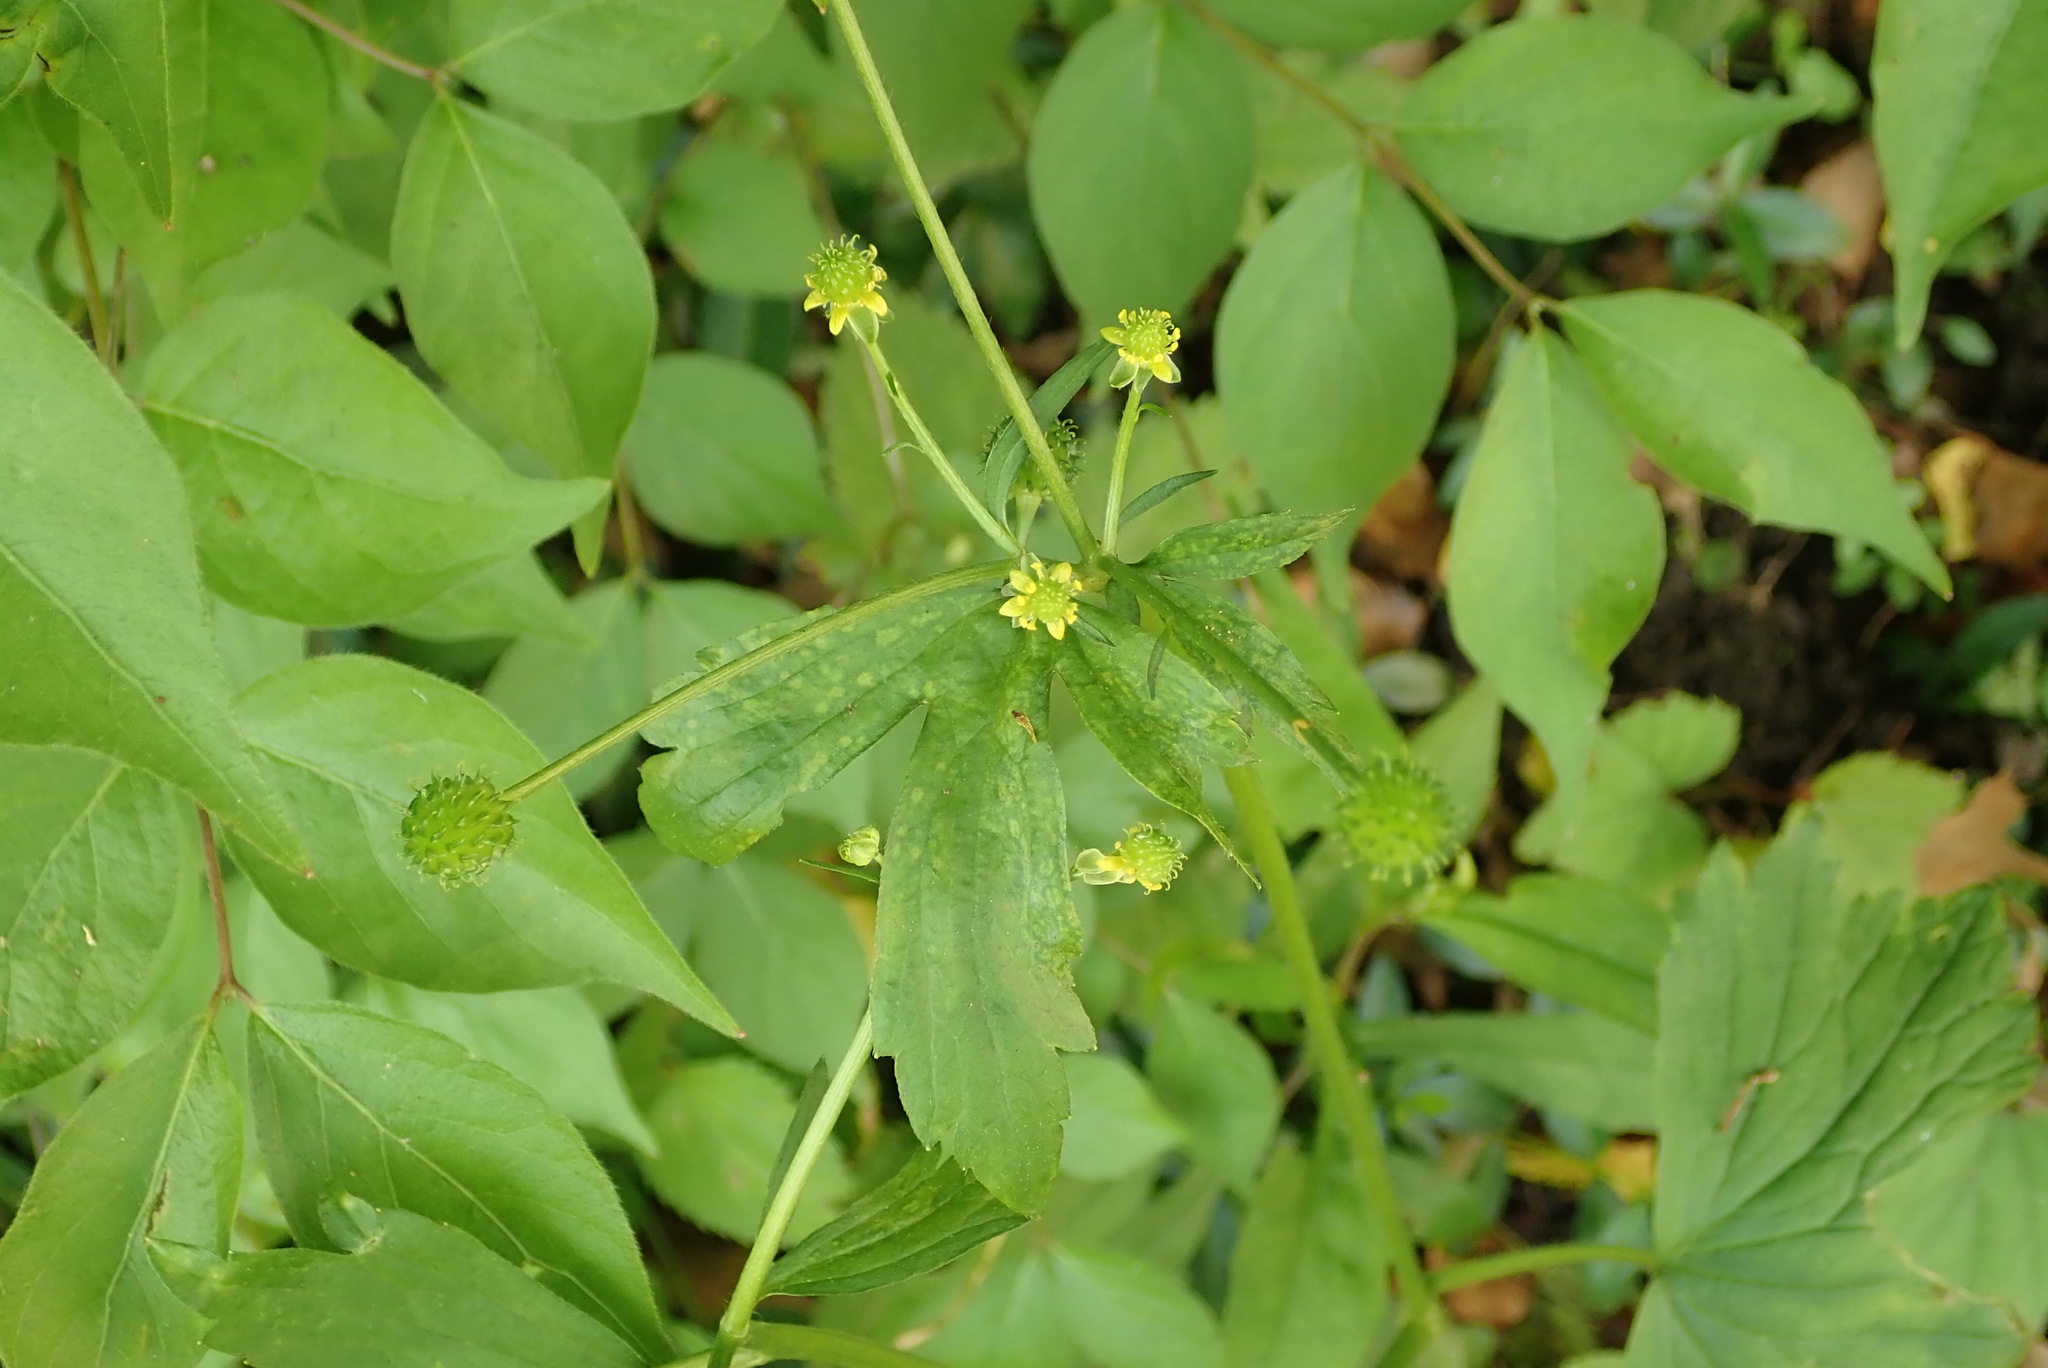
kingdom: Plantae
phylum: Tracheophyta
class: Magnoliopsida
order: Ranunculales
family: Ranunculaceae
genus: Ranunculus
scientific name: Ranunculus abortivus
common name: Early wood buttercup
